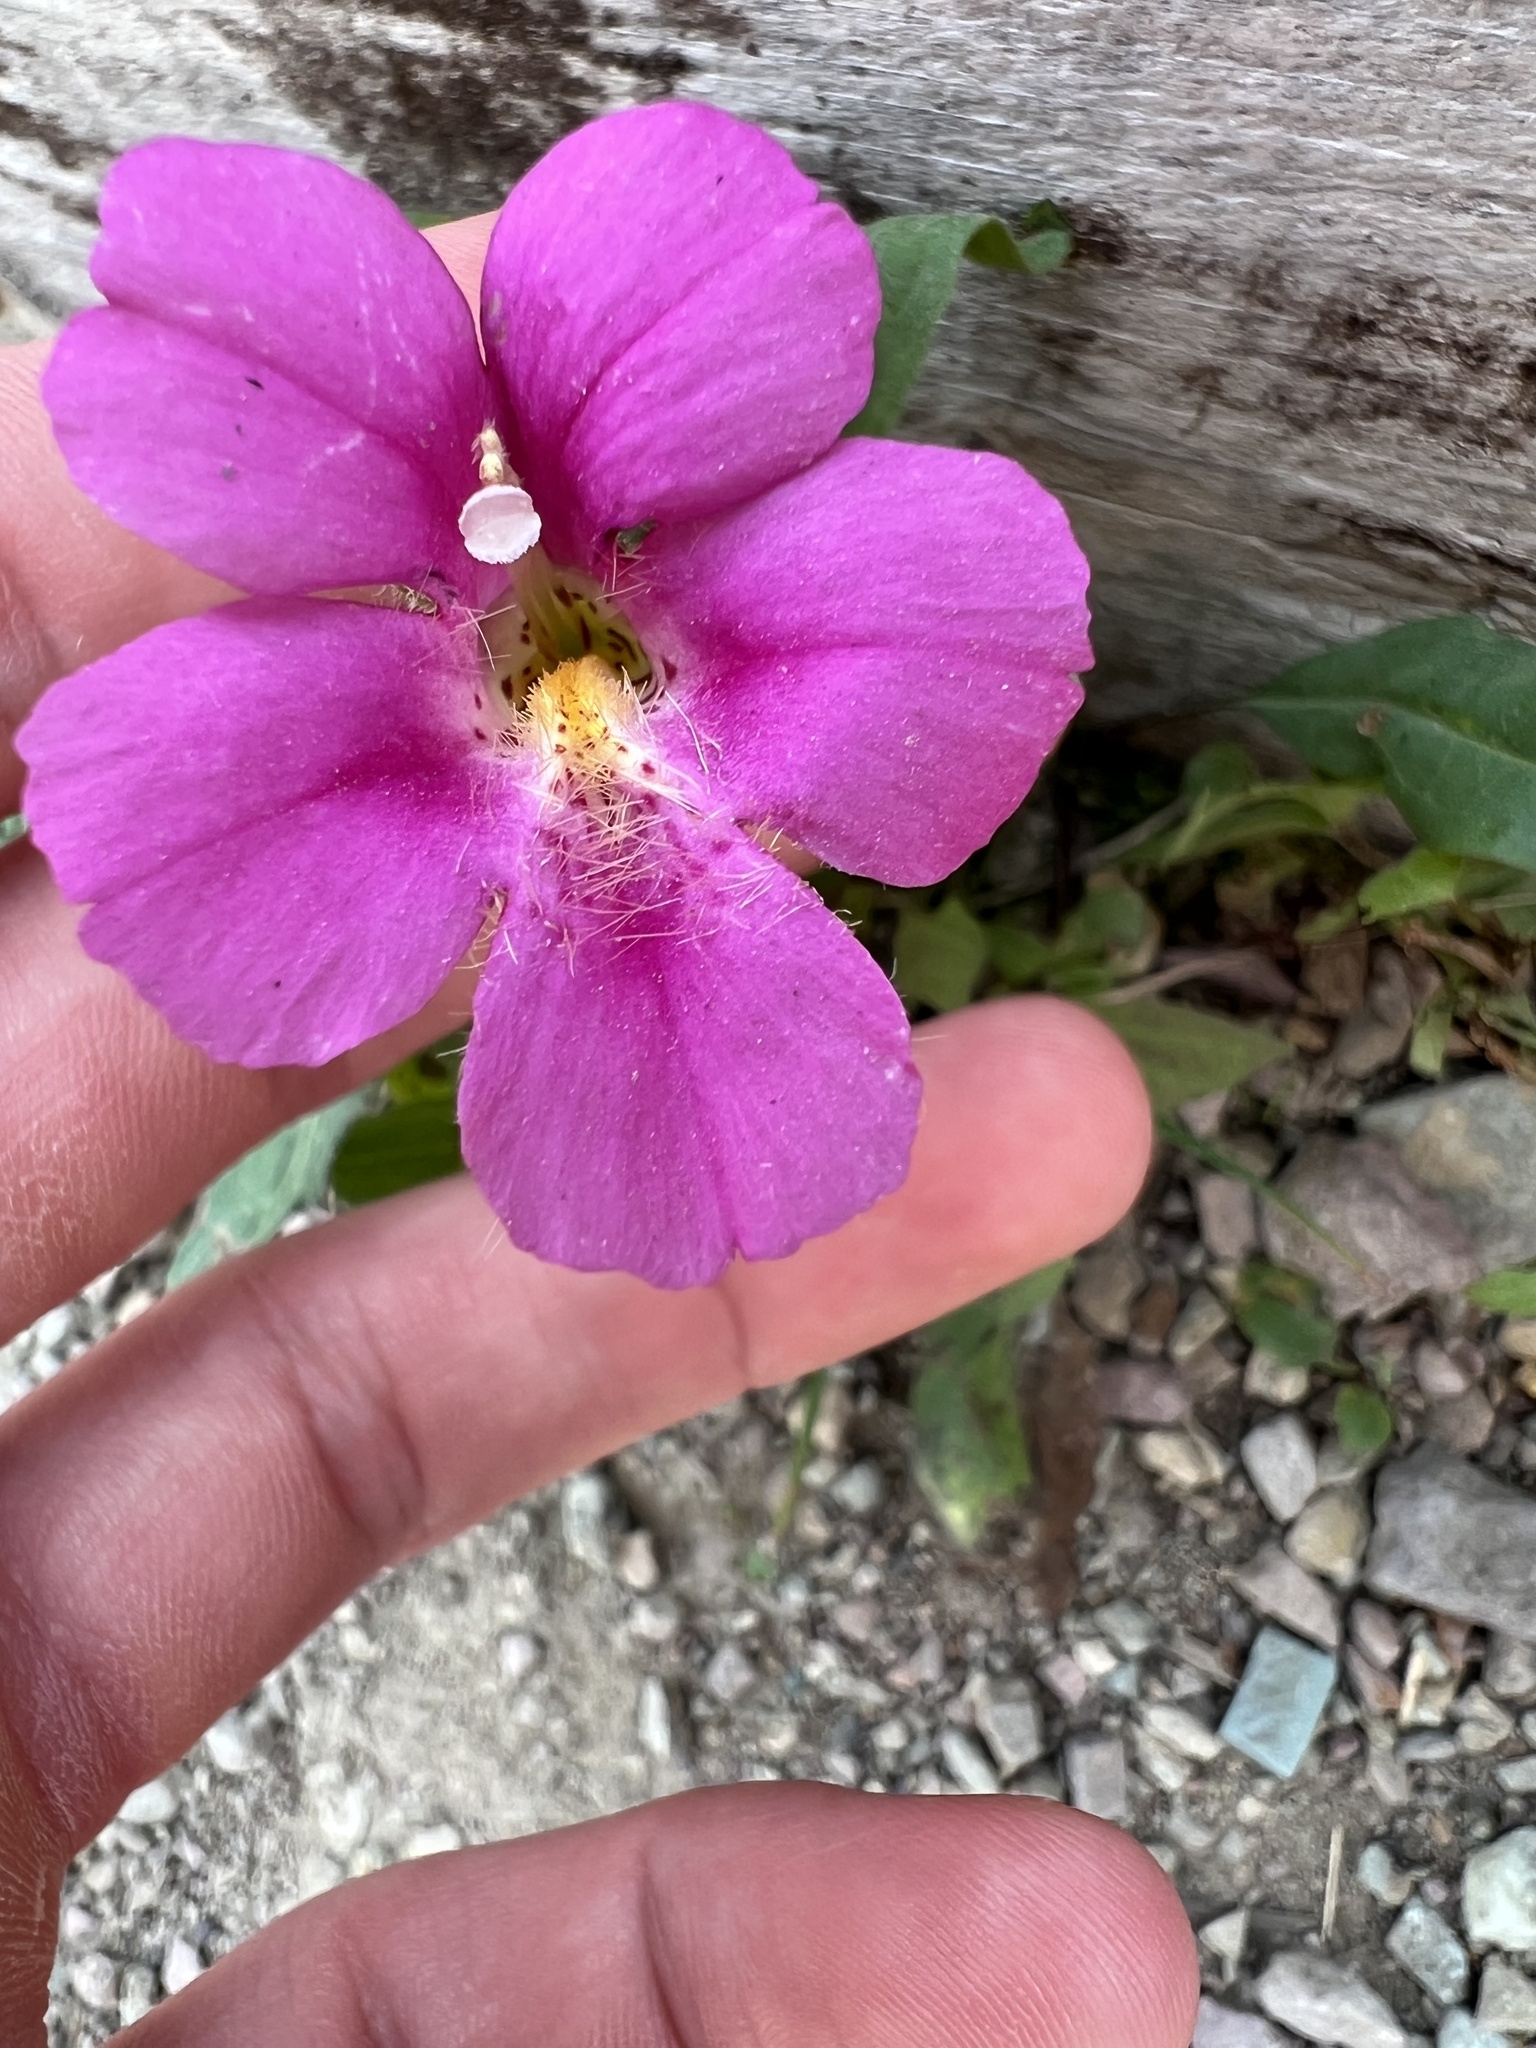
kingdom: Plantae
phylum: Tracheophyta
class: Magnoliopsida
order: Lamiales
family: Phrymaceae
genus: Erythranthe
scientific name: Erythranthe lewisii
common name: Lewis's monkey-flower
